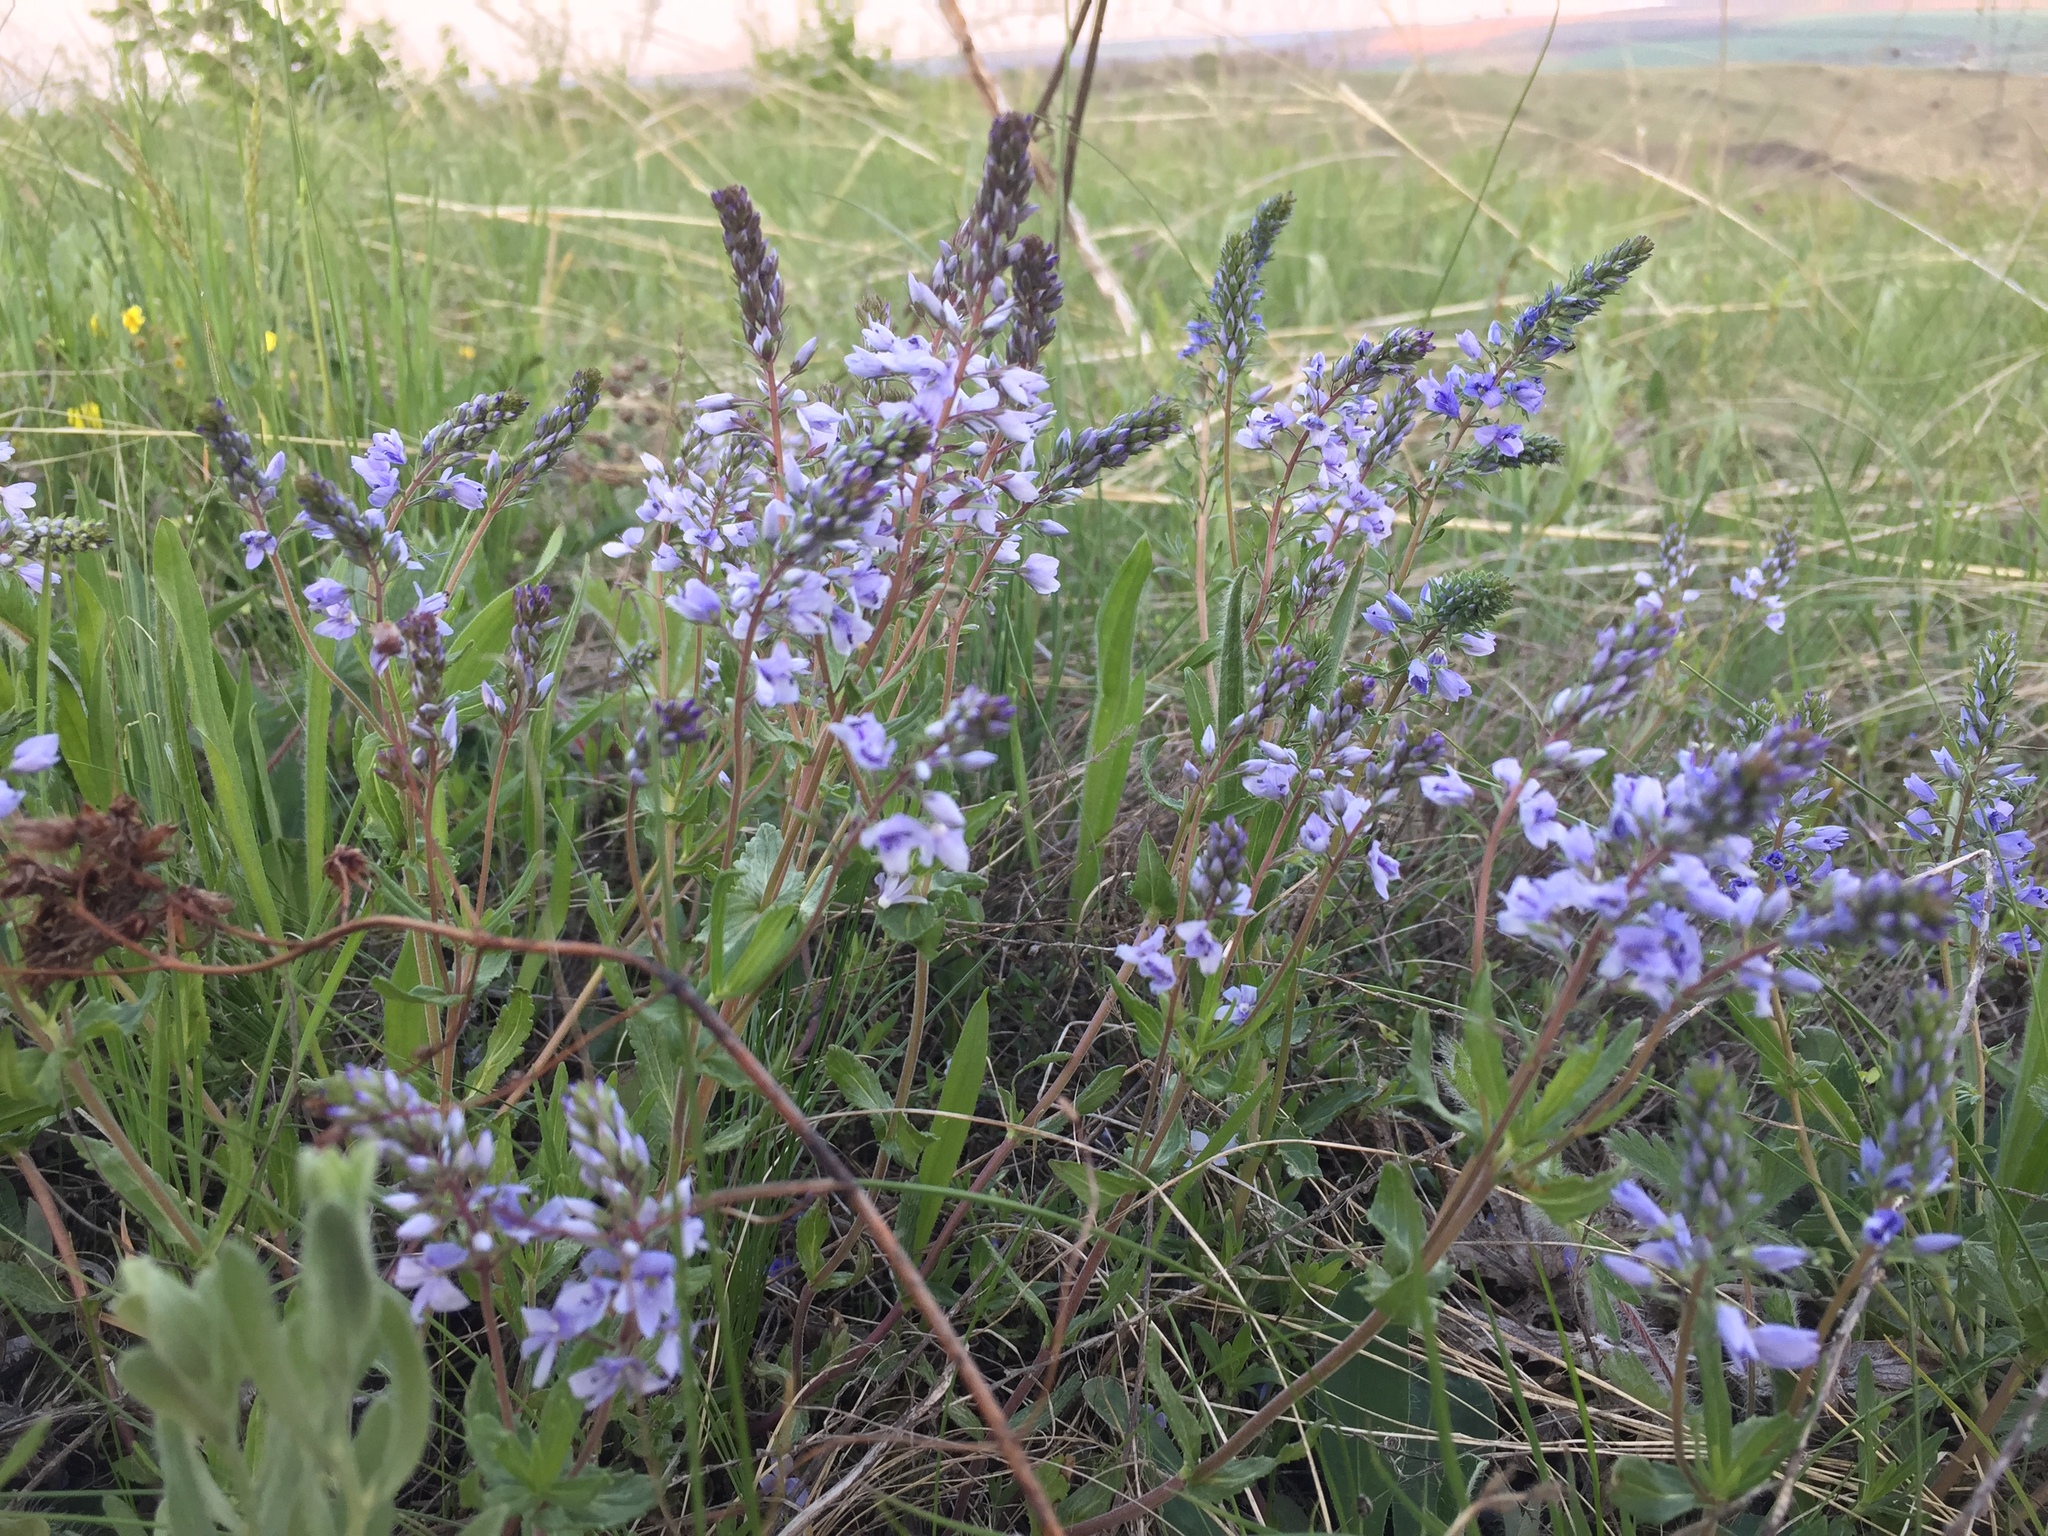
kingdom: Plantae
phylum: Tracheophyta
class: Magnoliopsida
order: Lamiales
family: Plantaginaceae
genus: Veronica
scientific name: Veronica prostrata
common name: Prostrate speedwell
